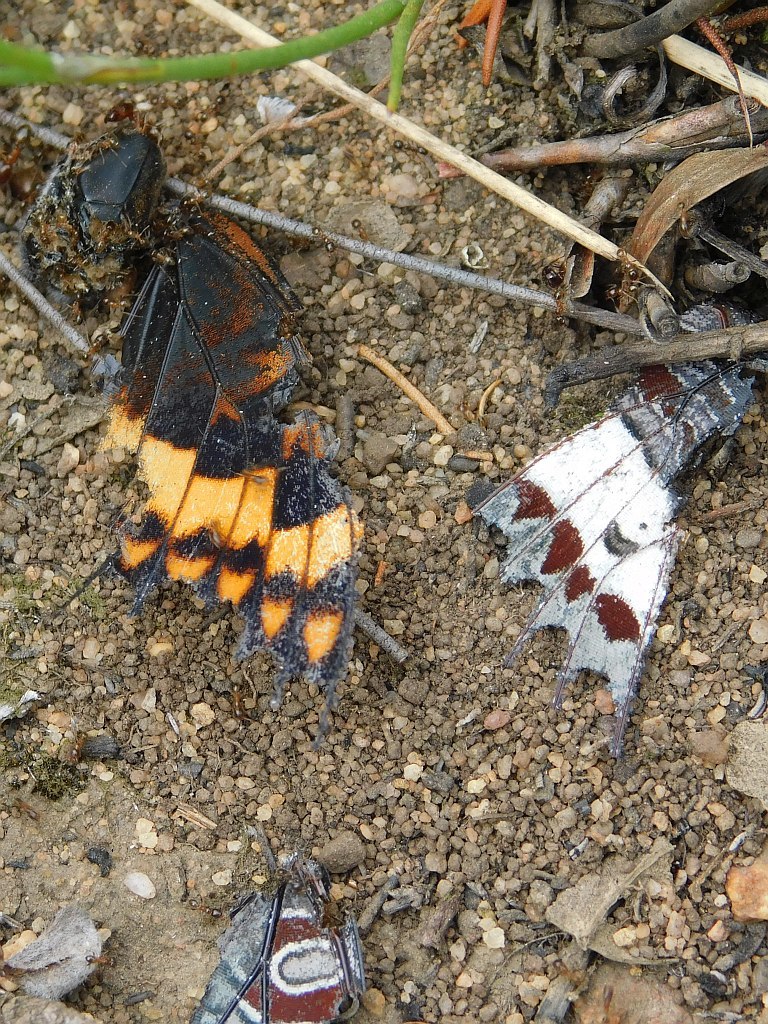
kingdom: Animalia
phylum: Arthropoda
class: Insecta
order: Lepidoptera
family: Nymphalidae
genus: Charaxes
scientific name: Charaxes pelias
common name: Protea charaxes
